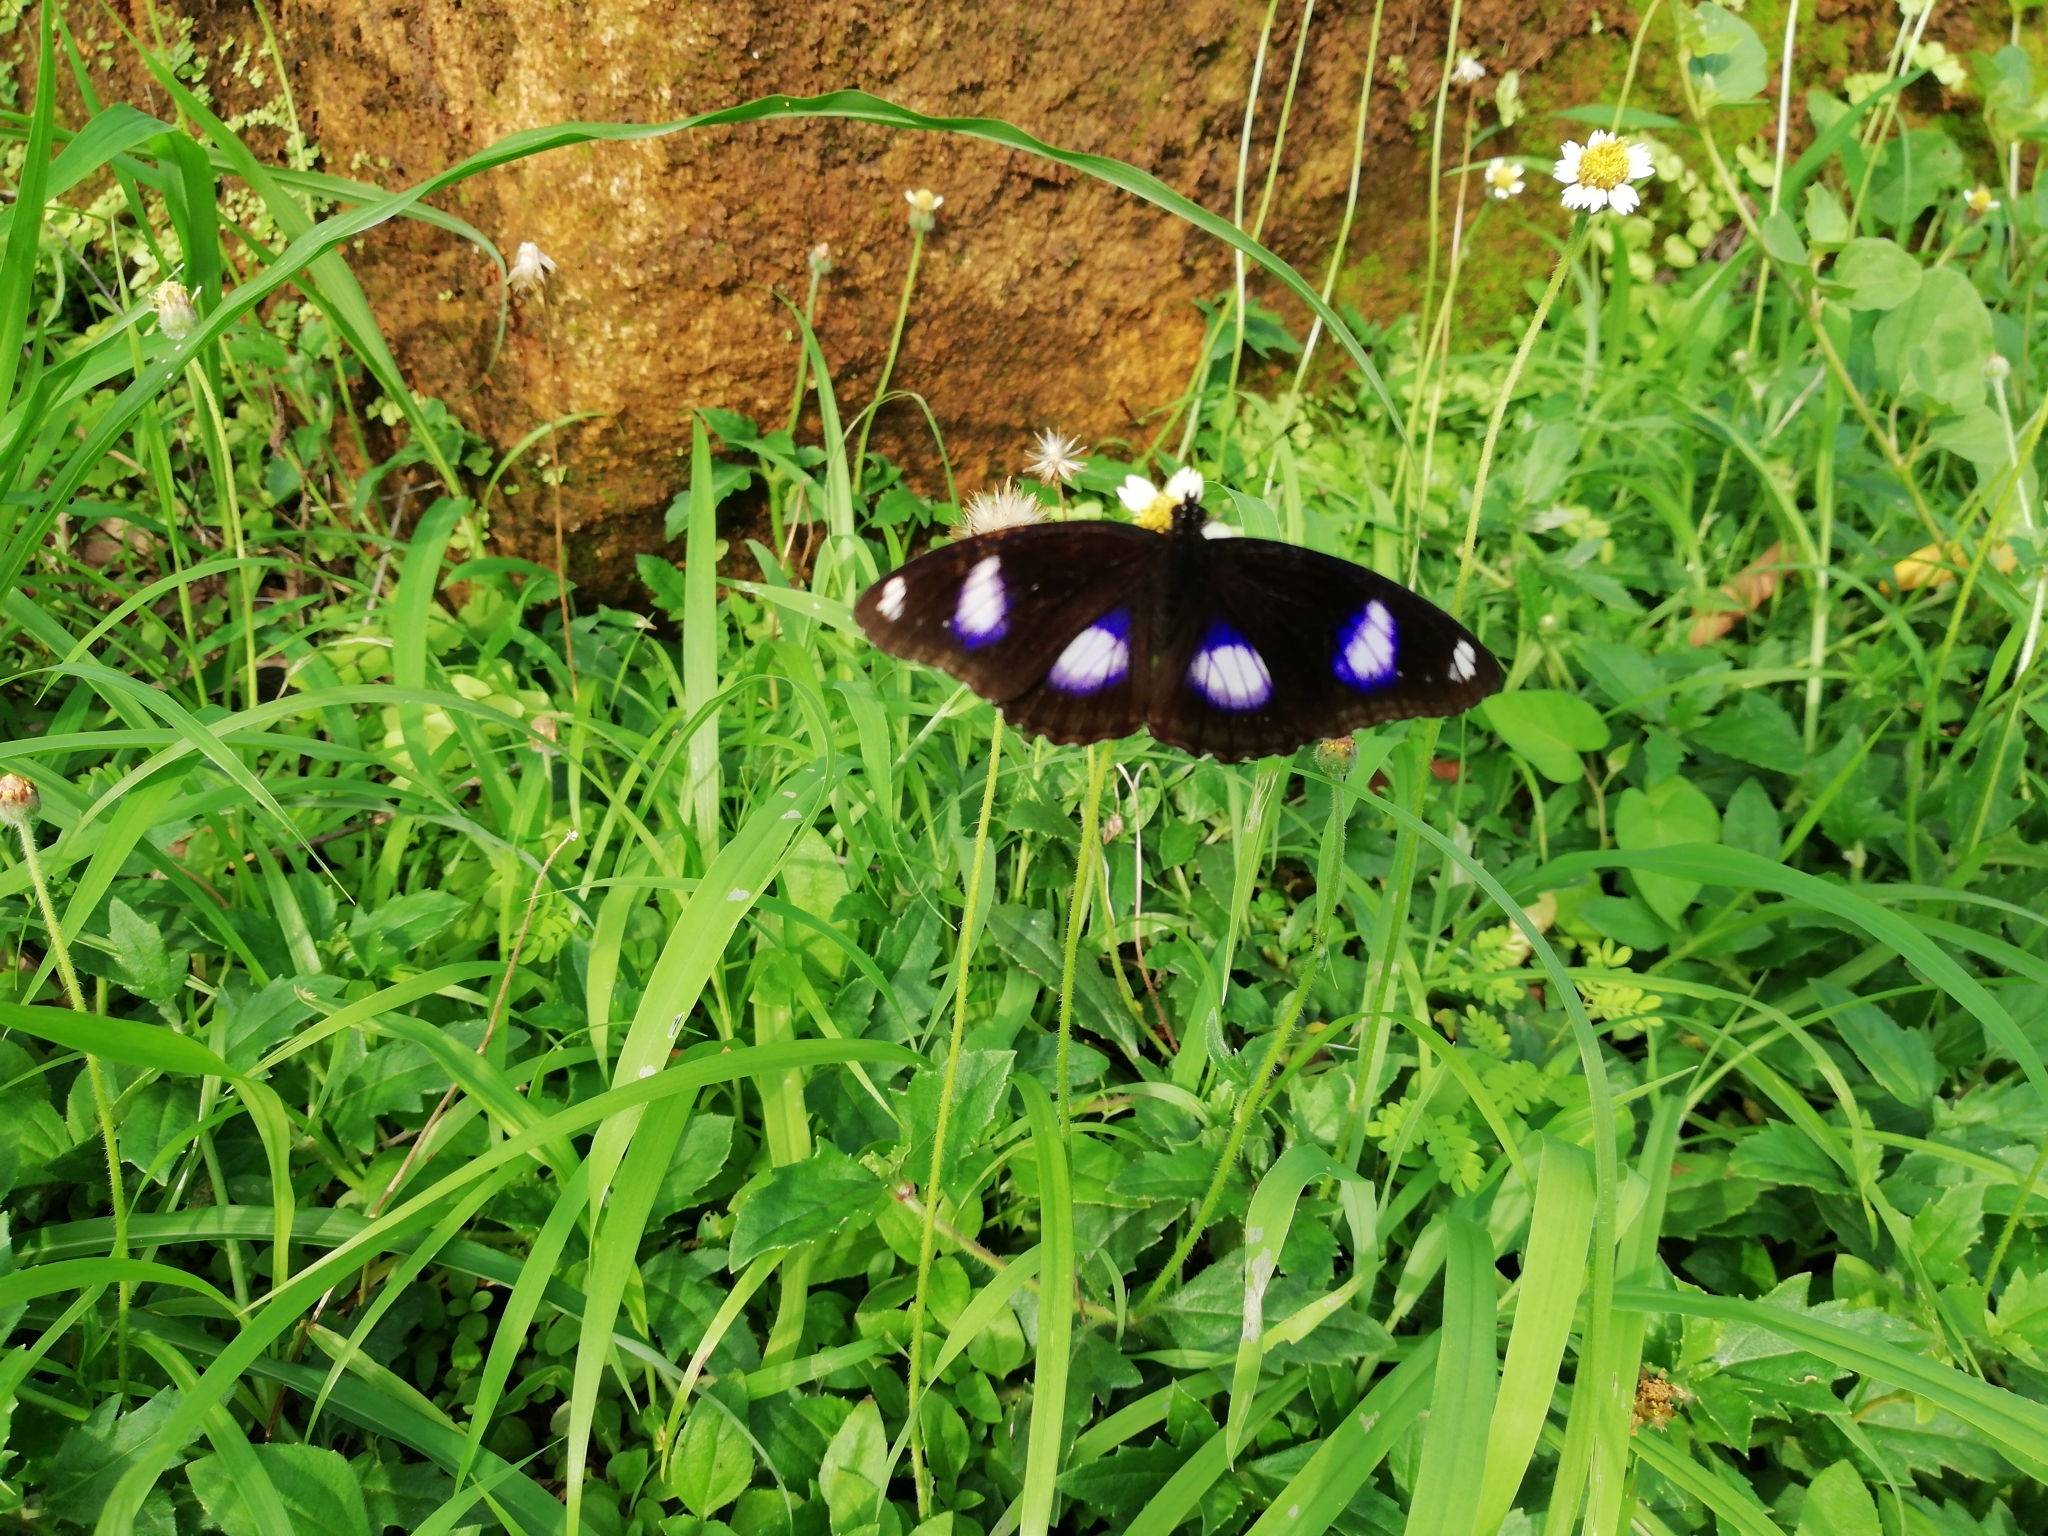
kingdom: Animalia
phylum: Arthropoda
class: Insecta
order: Lepidoptera
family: Nymphalidae
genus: Hypolimnas
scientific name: Hypolimnas bolina
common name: Great eggfly
